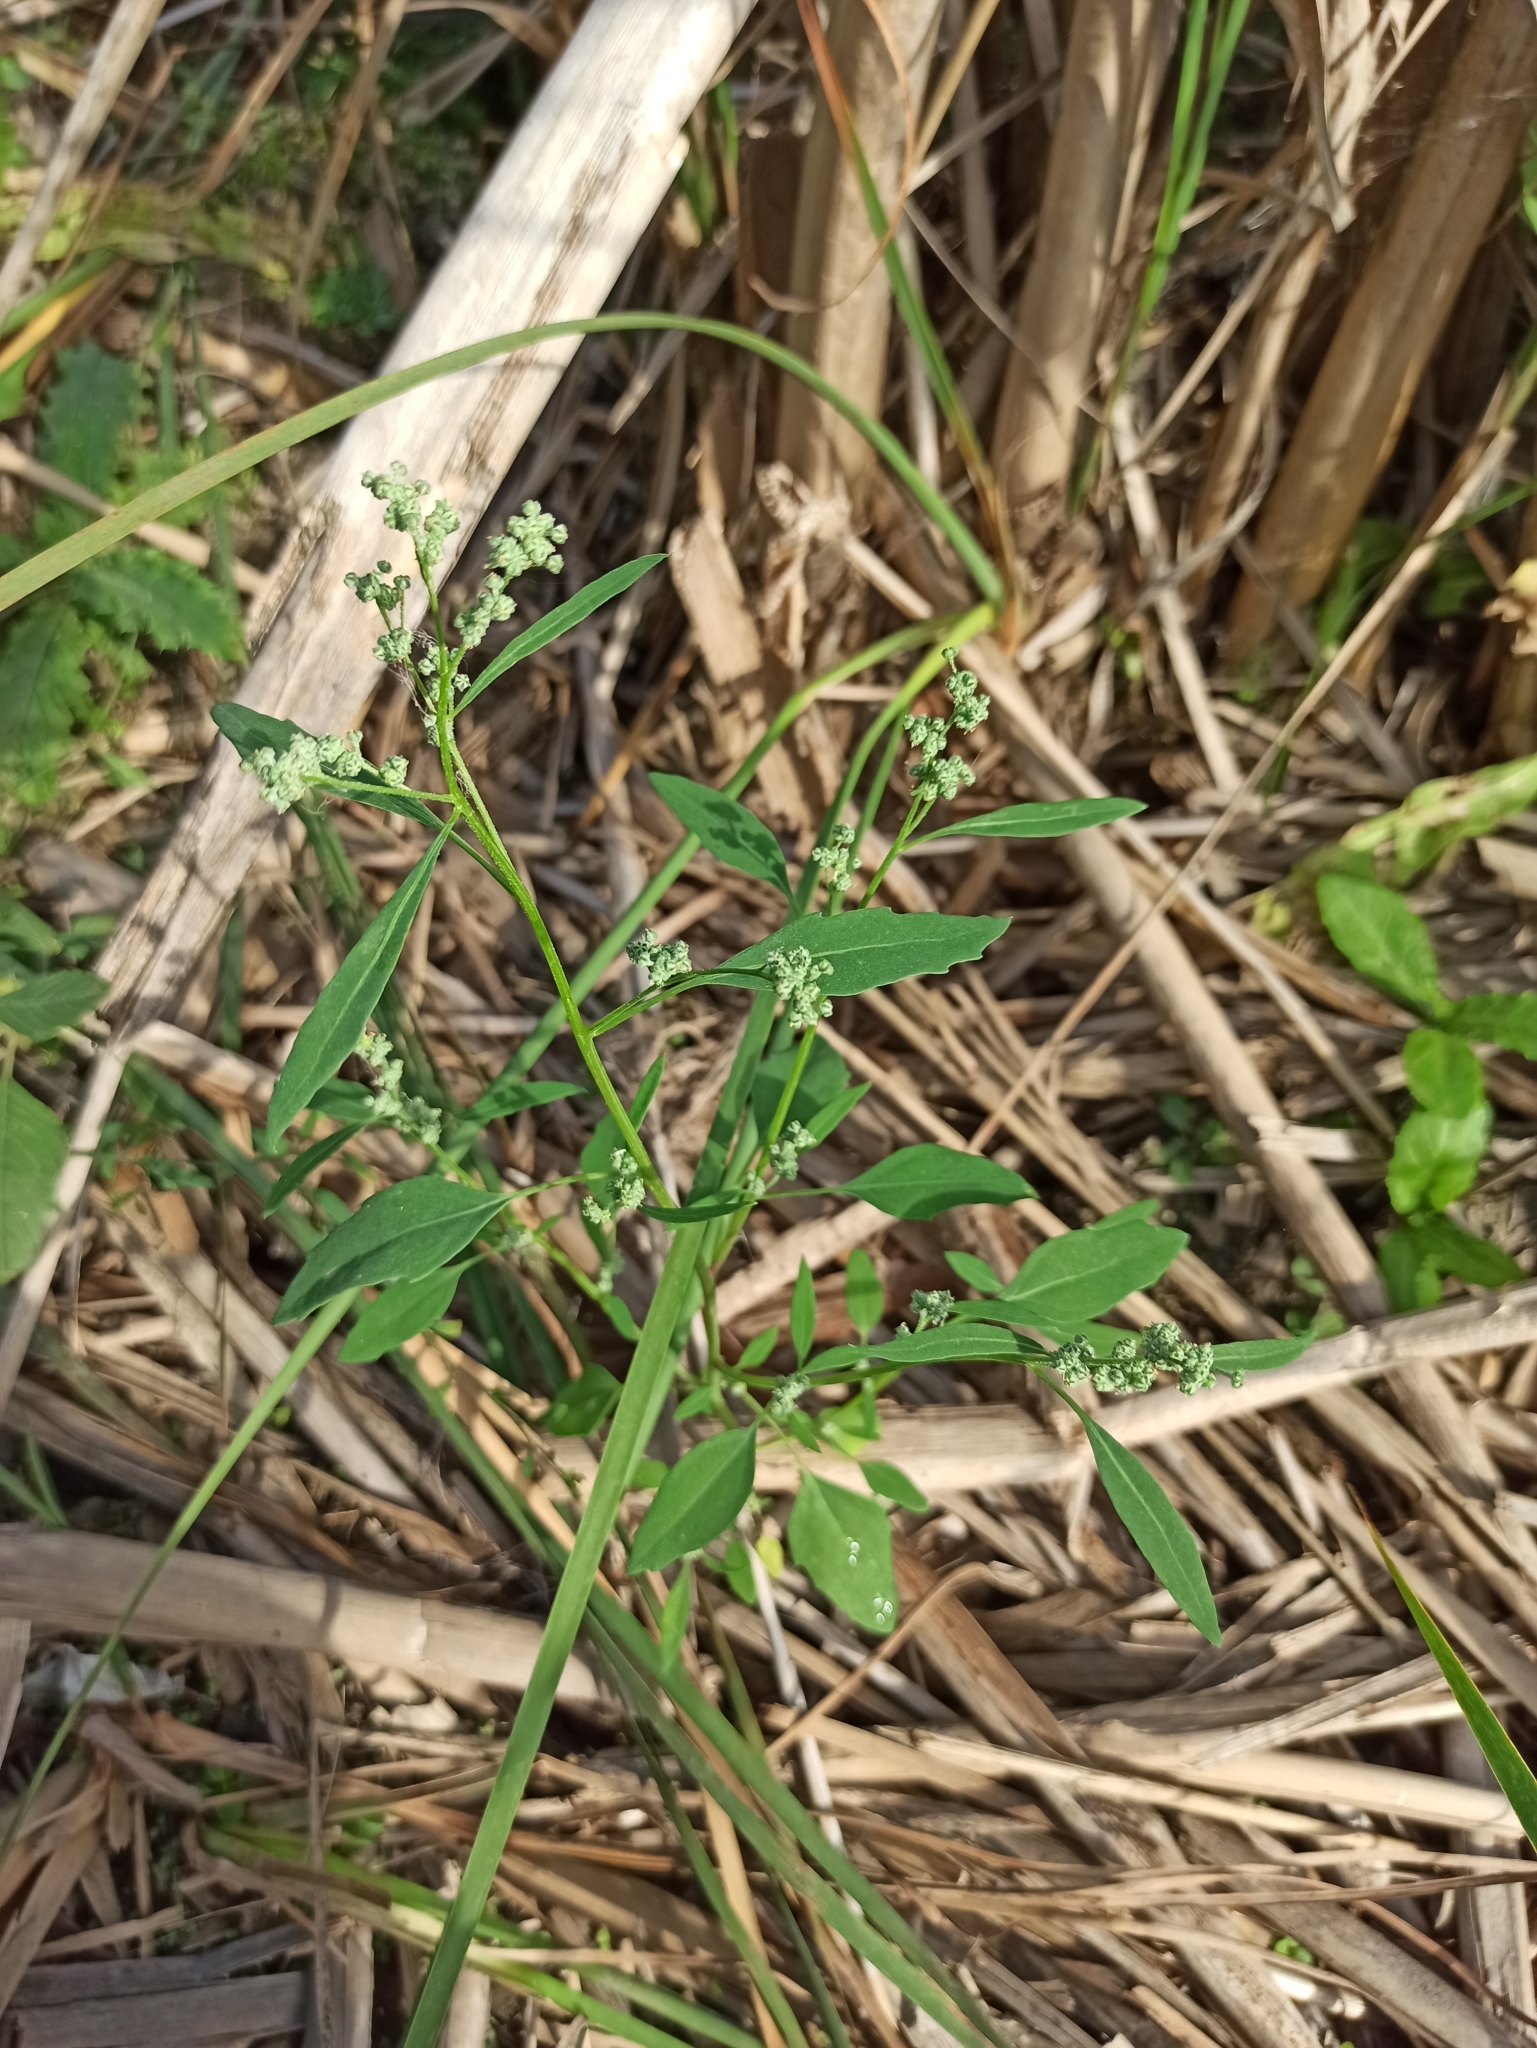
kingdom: Plantae
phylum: Tracheophyta
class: Magnoliopsida
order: Caryophyllales
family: Amaranthaceae
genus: Chenopodium
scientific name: Chenopodium album
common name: Fat-hen
